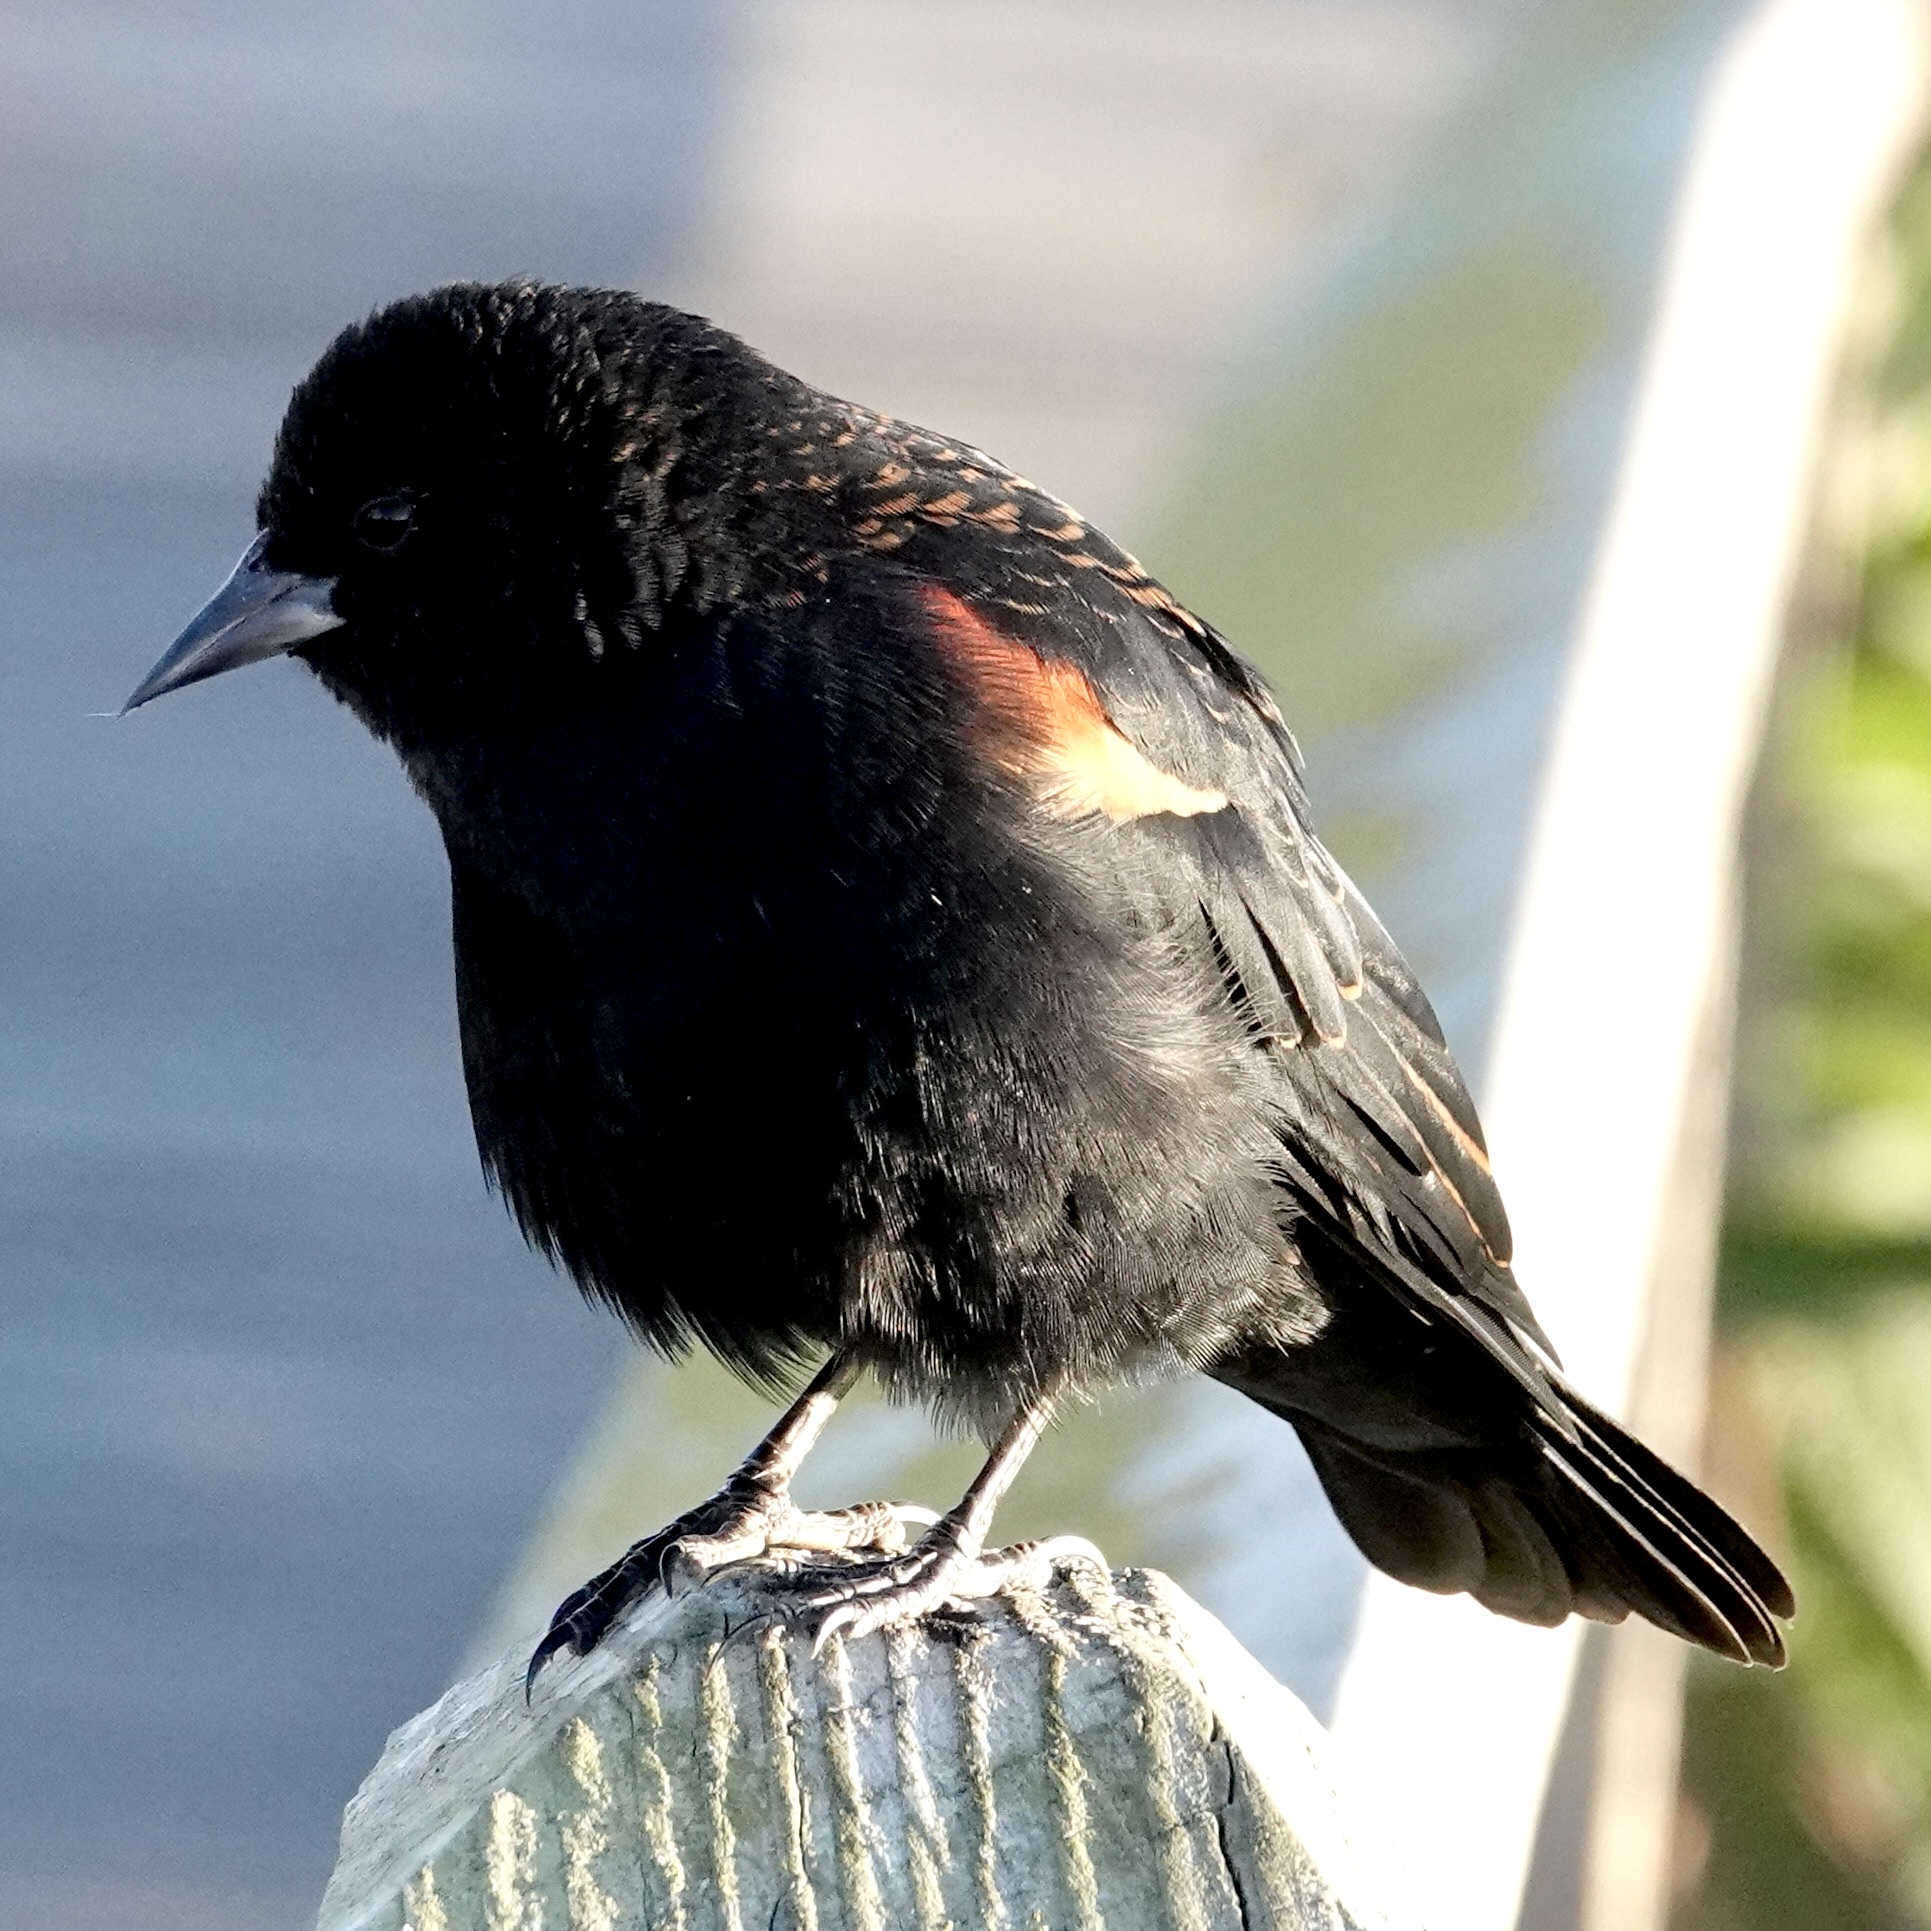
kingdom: Animalia
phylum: Chordata
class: Aves
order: Passeriformes
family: Icteridae
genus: Agelaius
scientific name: Agelaius phoeniceus
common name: Red-winged blackbird
